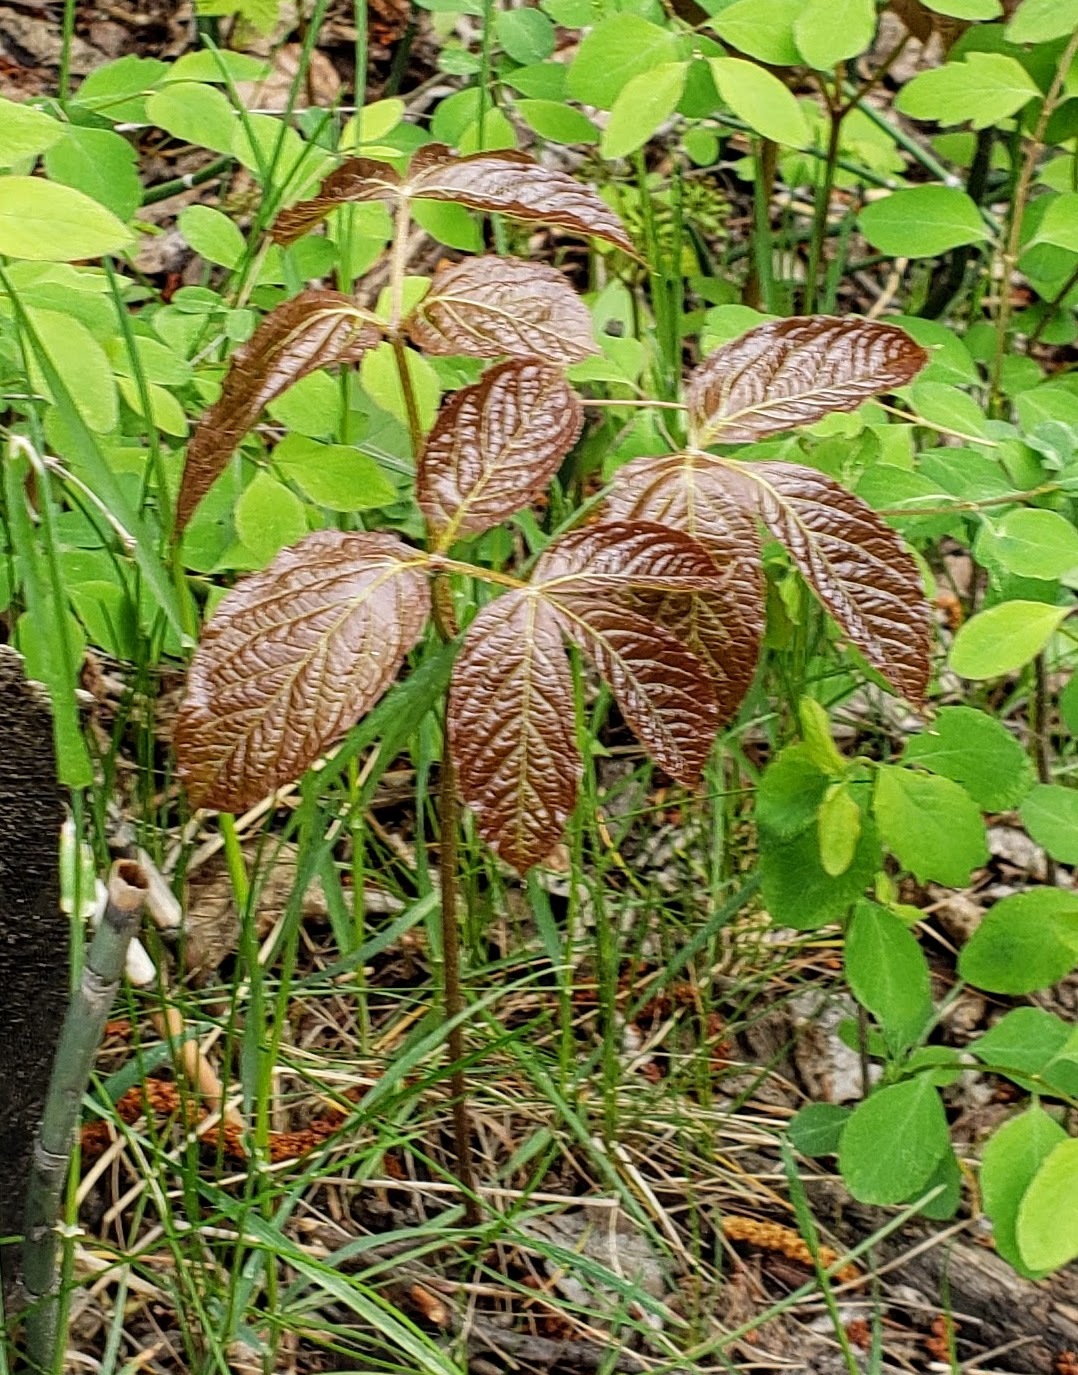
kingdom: Plantae
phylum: Tracheophyta
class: Magnoliopsida
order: Apiales
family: Araliaceae
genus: Aralia
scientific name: Aralia nudicaulis
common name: Wild sarsaparilla
